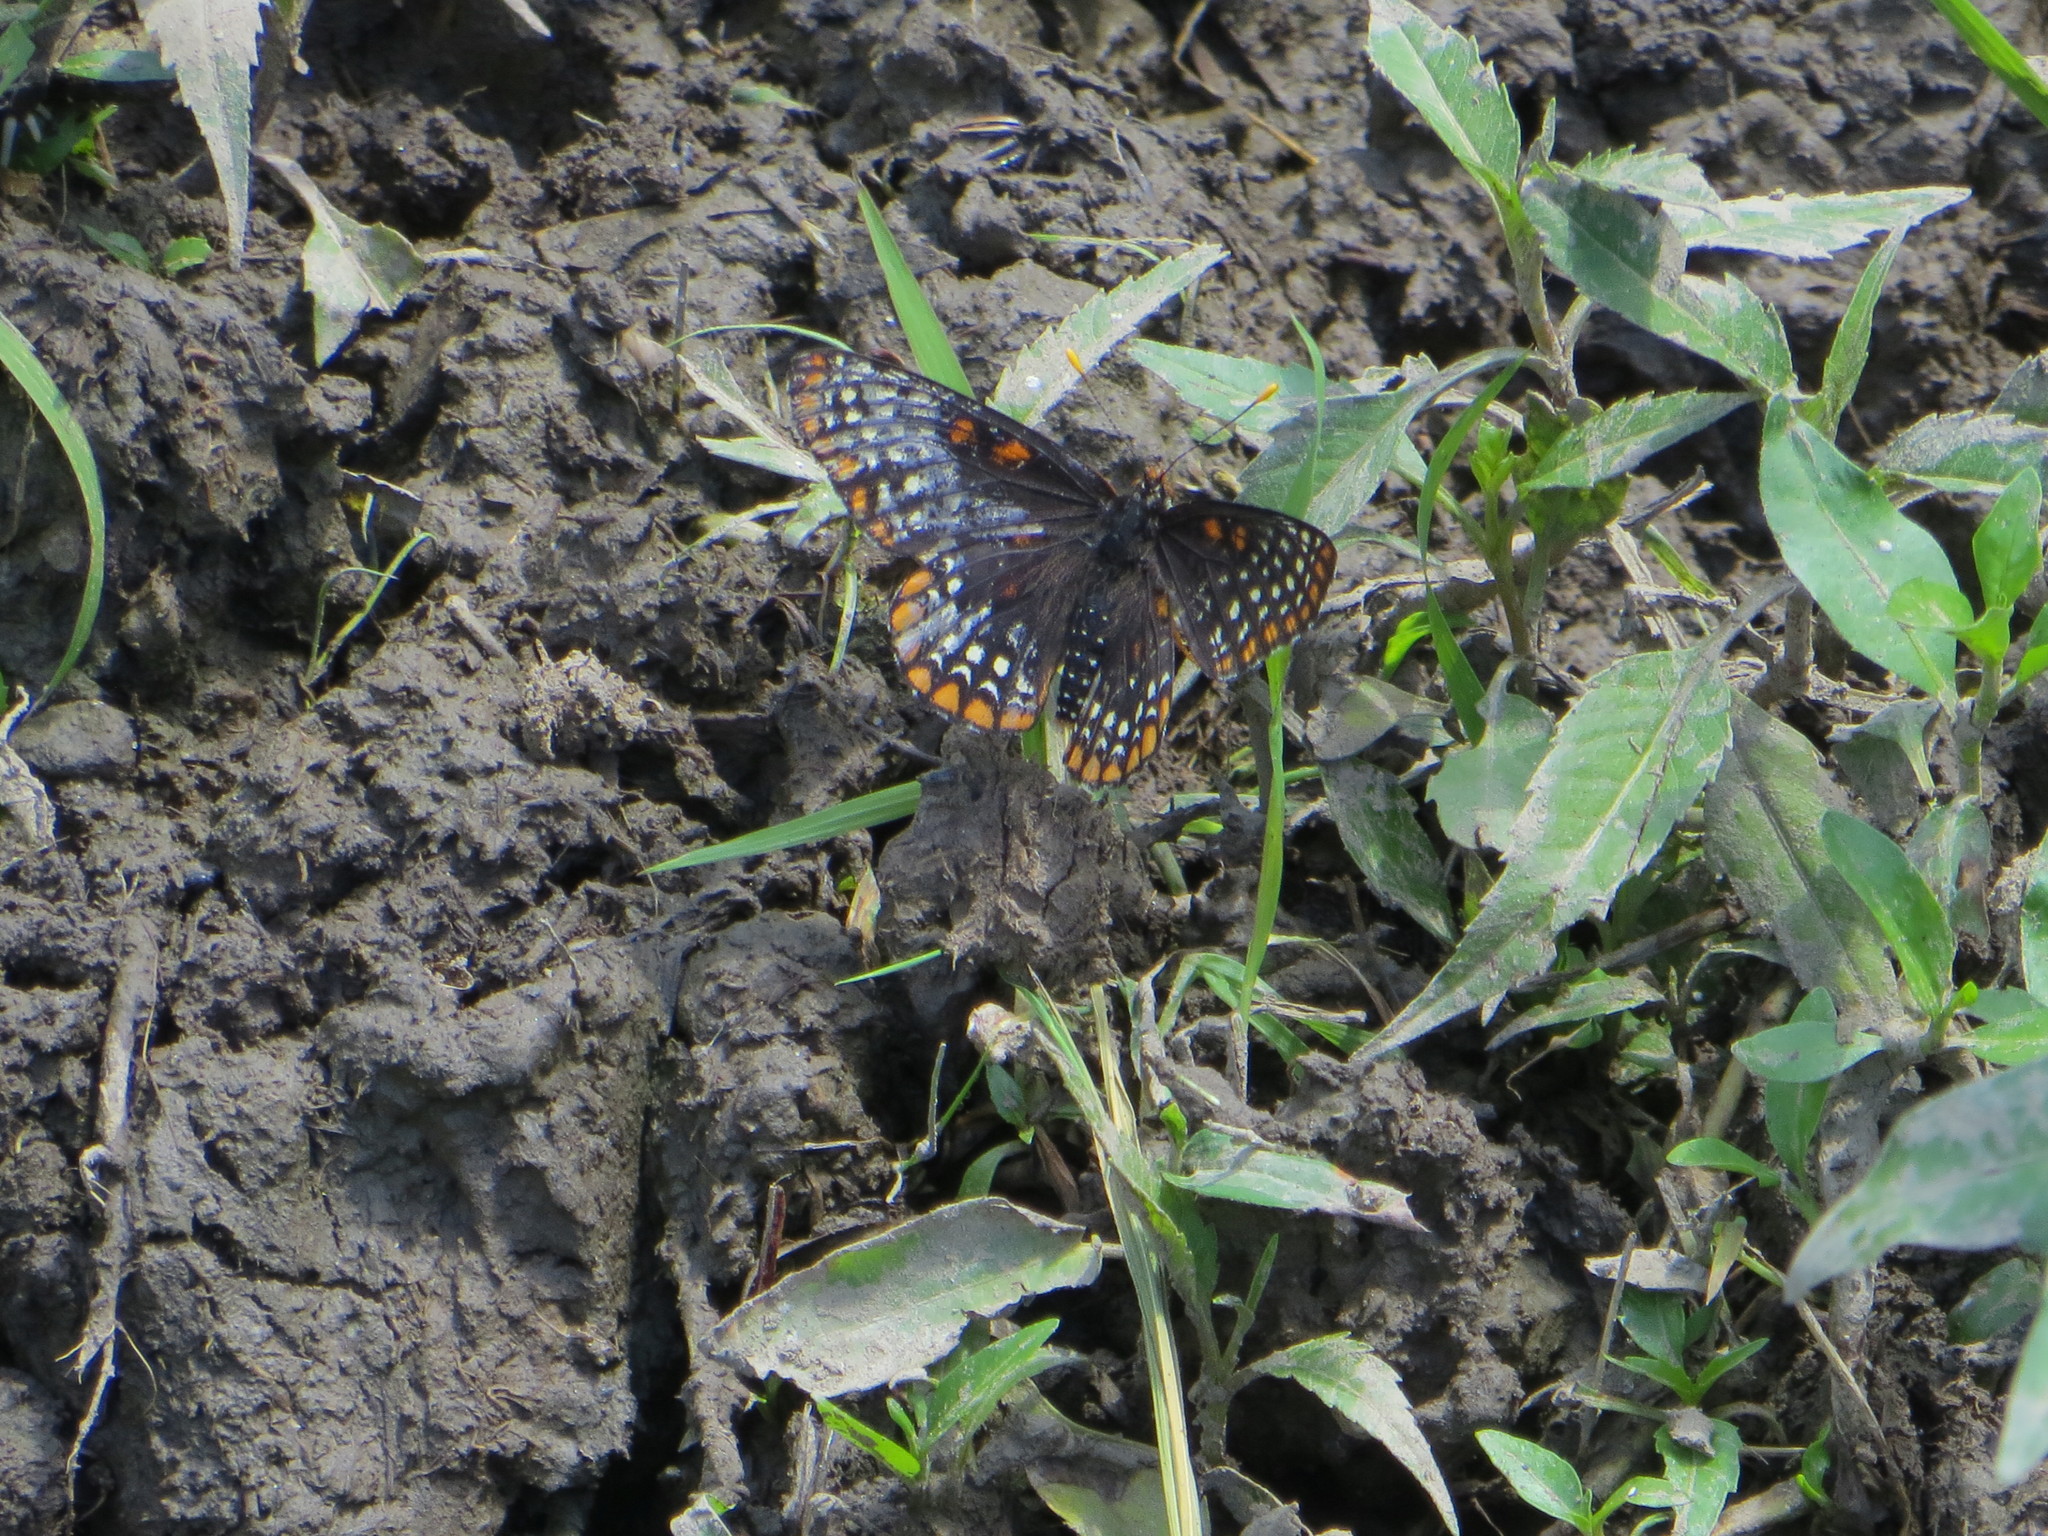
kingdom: Animalia
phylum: Arthropoda
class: Insecta
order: Lepidoptera
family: Nymphalidae
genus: Euphydryas
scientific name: Euphydryas phaeton
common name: Baltimore checkerspot
